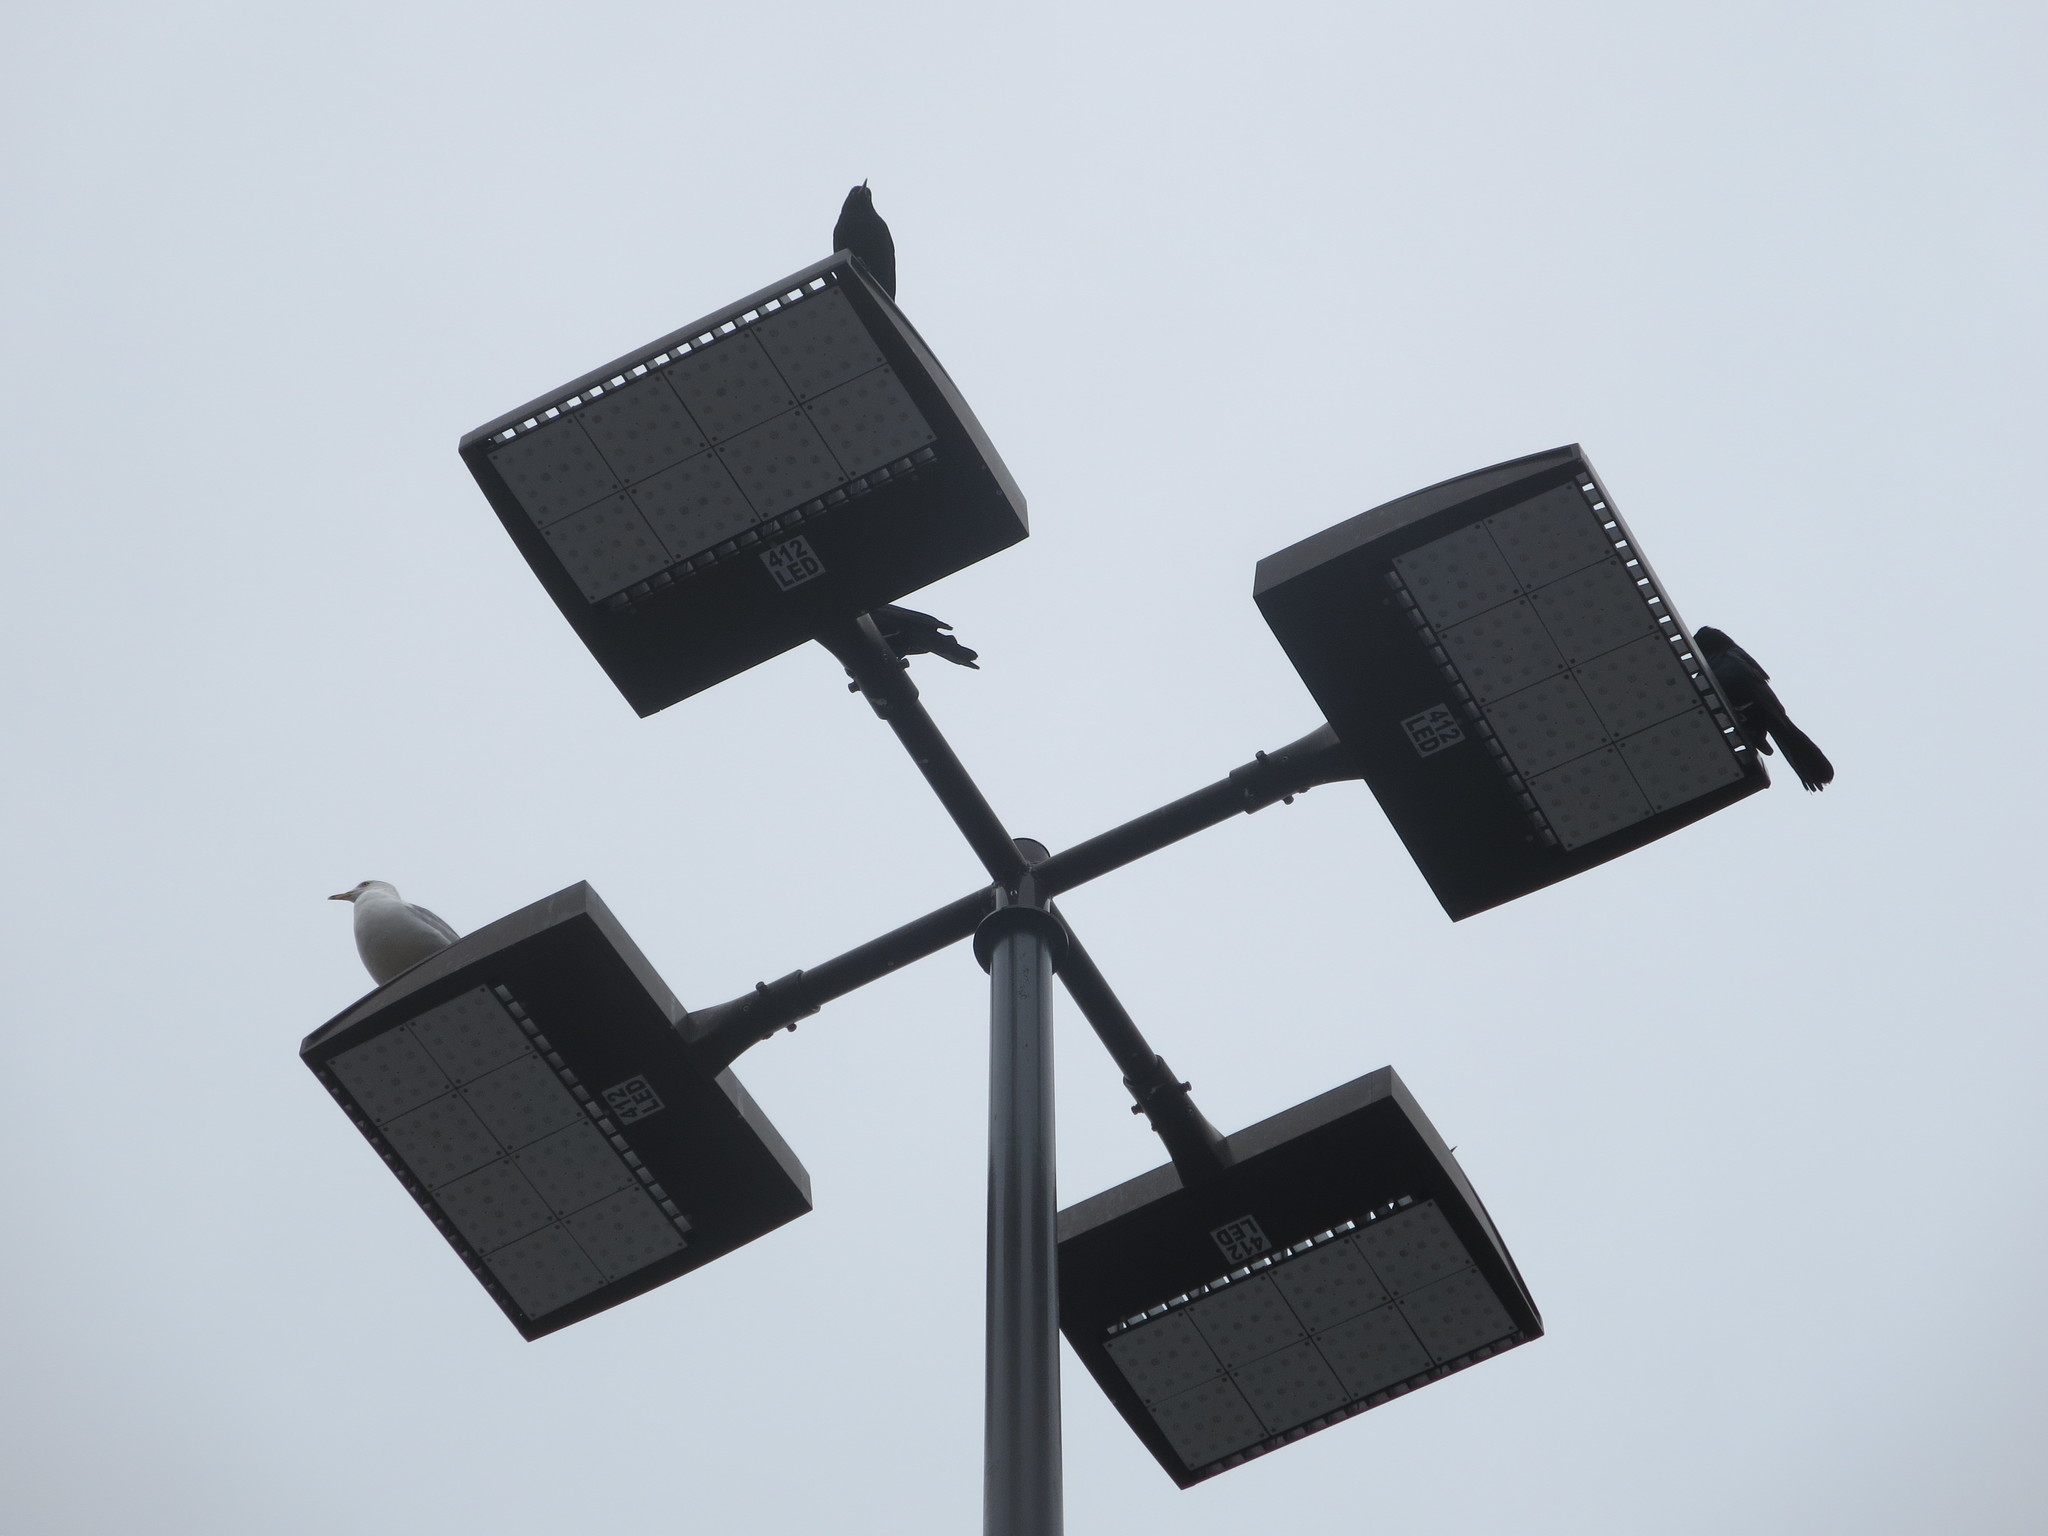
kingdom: Animalia
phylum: Chordata
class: Aves
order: Passeriformes
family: Icteridae
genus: Quiscalus
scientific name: Quiscalus major
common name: Boat-tailed grackle
